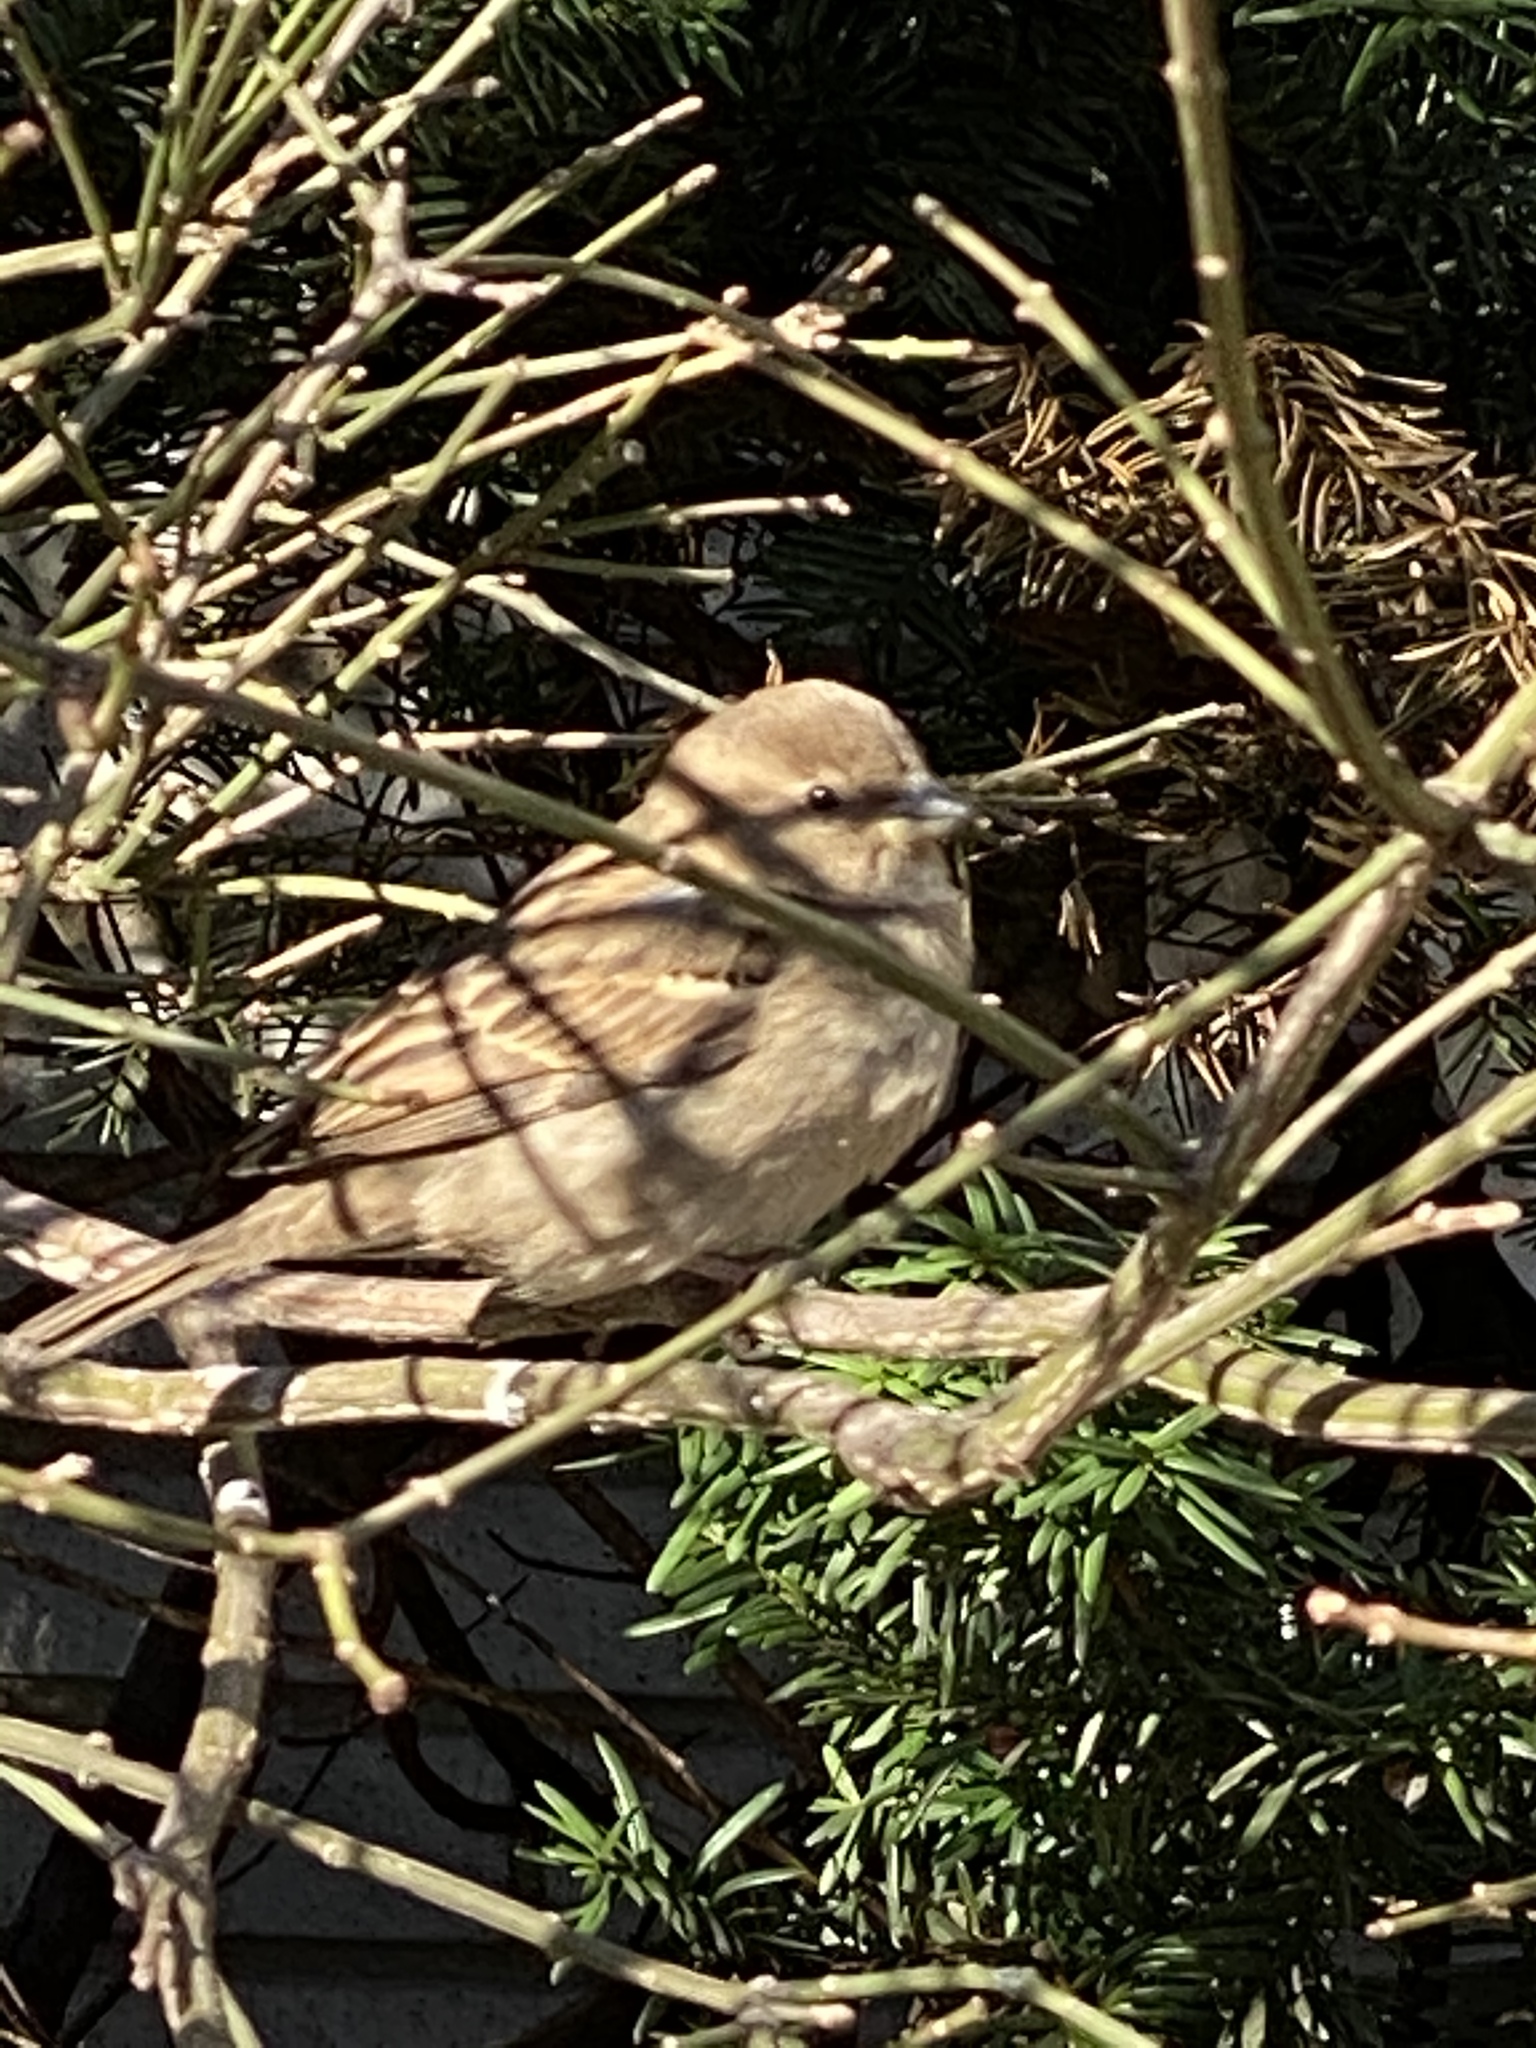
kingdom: Animalia
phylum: Chordata
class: Aves
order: Passeriformes
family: Passeridae
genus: Passer
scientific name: Passer domesticus
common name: House sparrow
